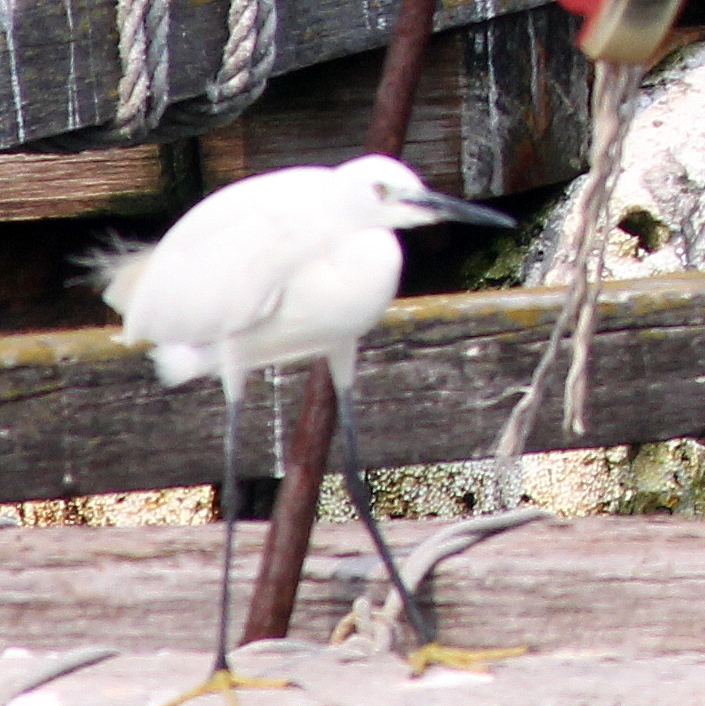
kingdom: Animalia
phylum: Chordata
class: Aves
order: Pelecaniformes
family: Ardeidae
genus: Egretta
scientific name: Egretta garzetta
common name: Little egret
